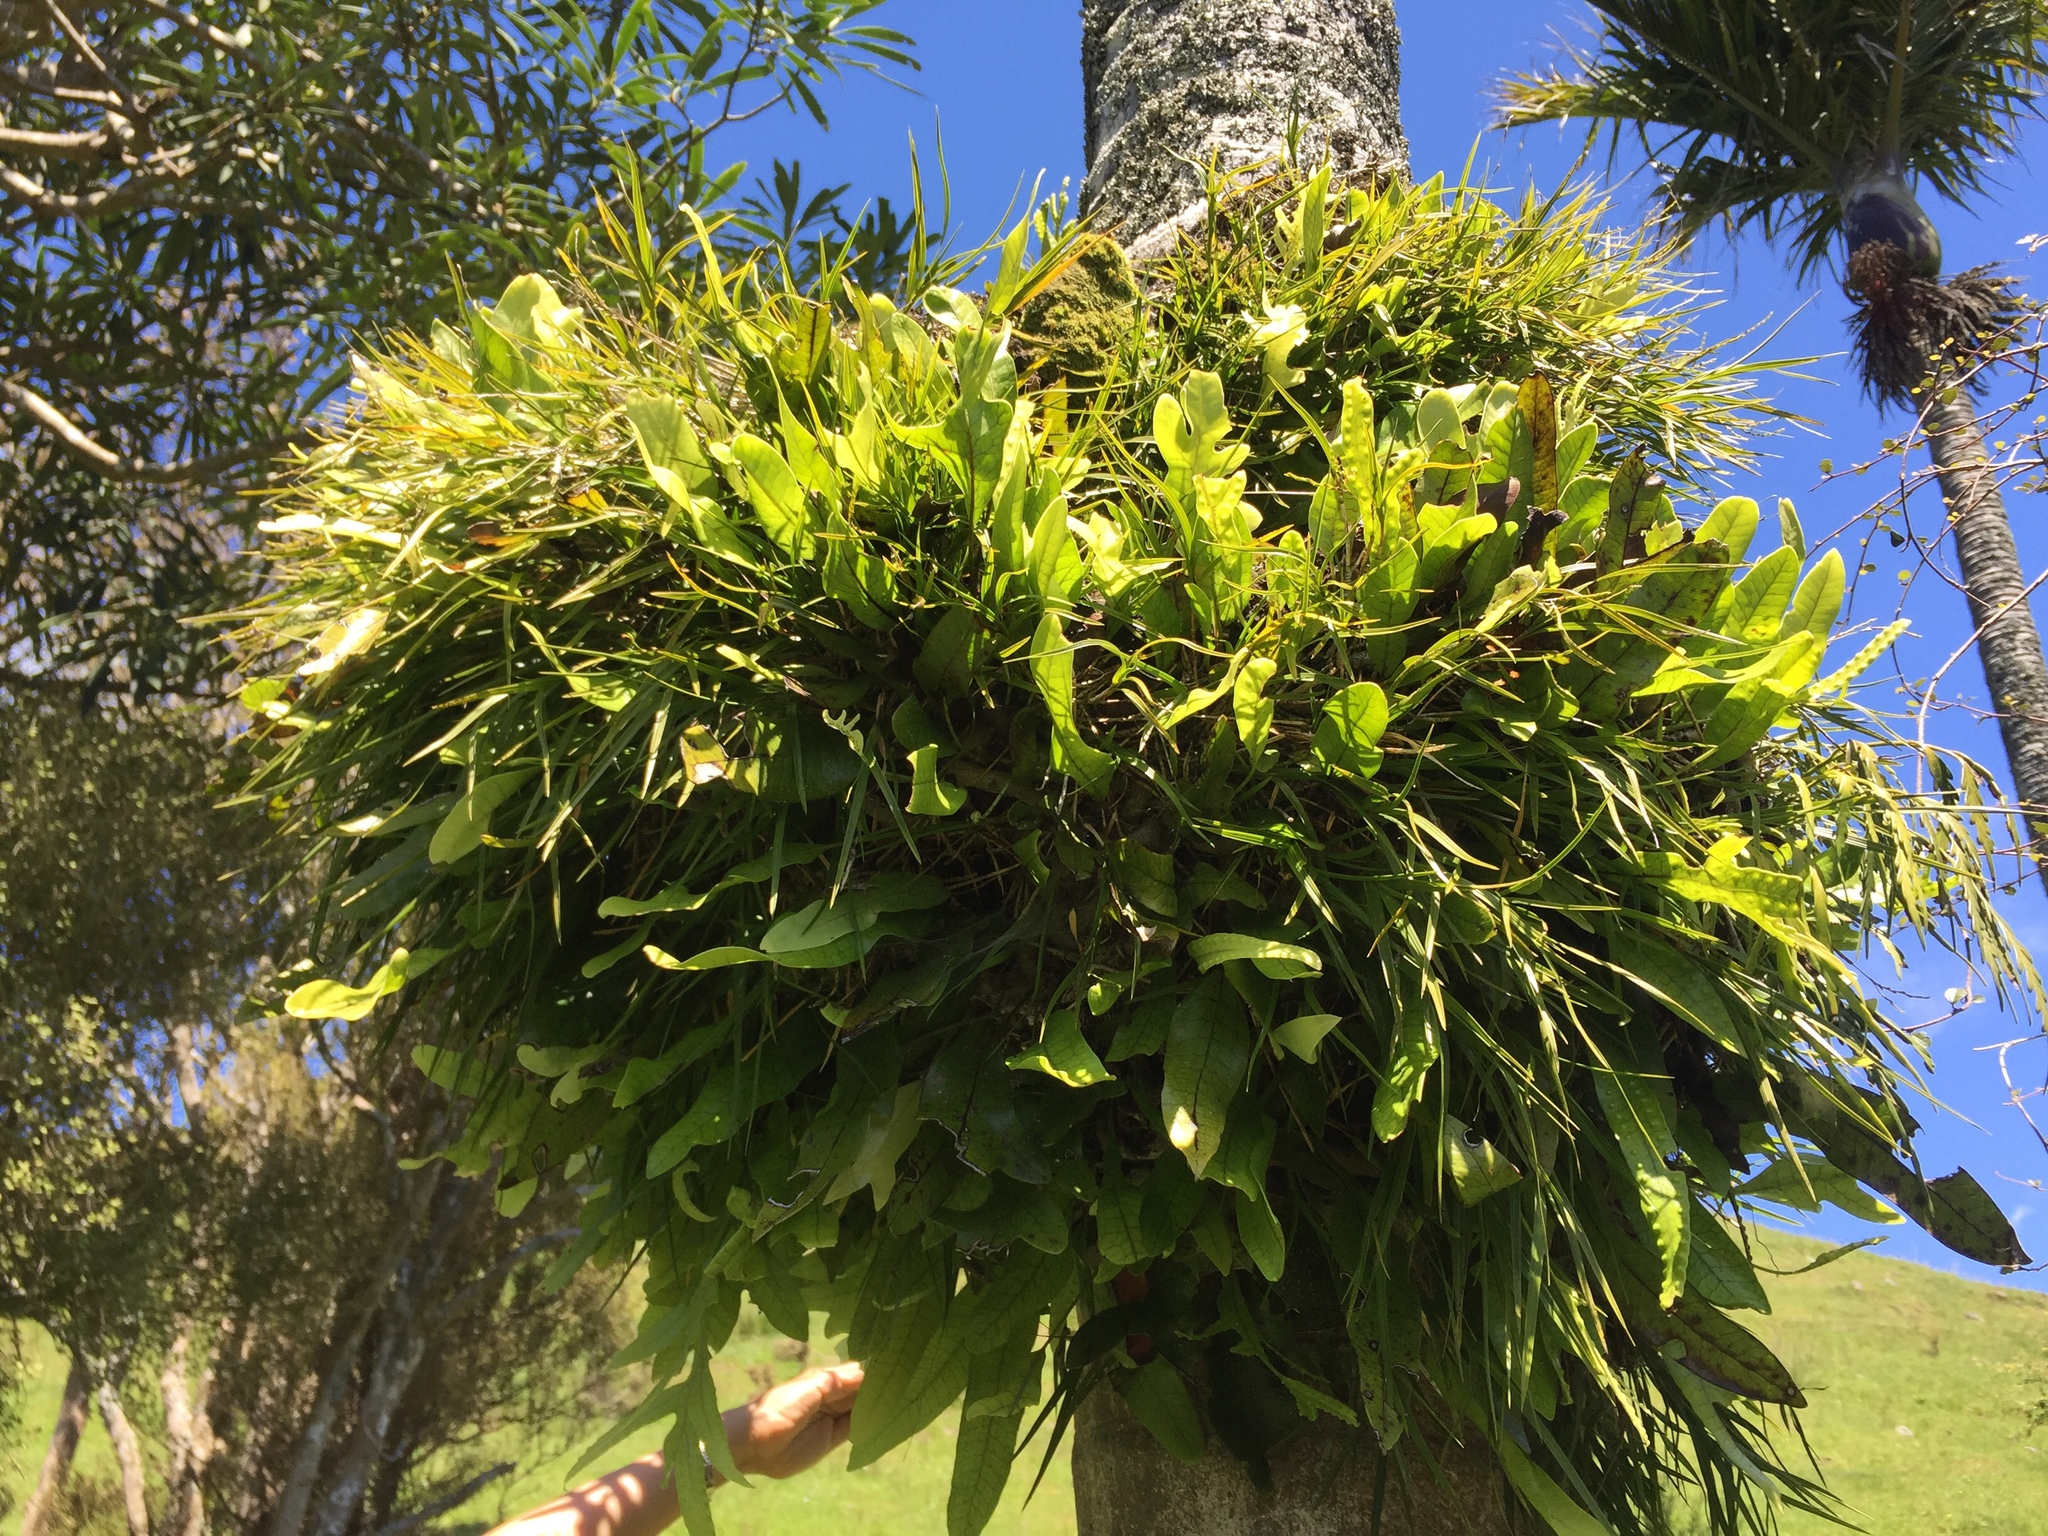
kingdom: Plantae
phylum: Tracheophyta
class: Liliopsida
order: Asparagales
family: Orchidaceae
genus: Earina
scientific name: Earina mucronata
